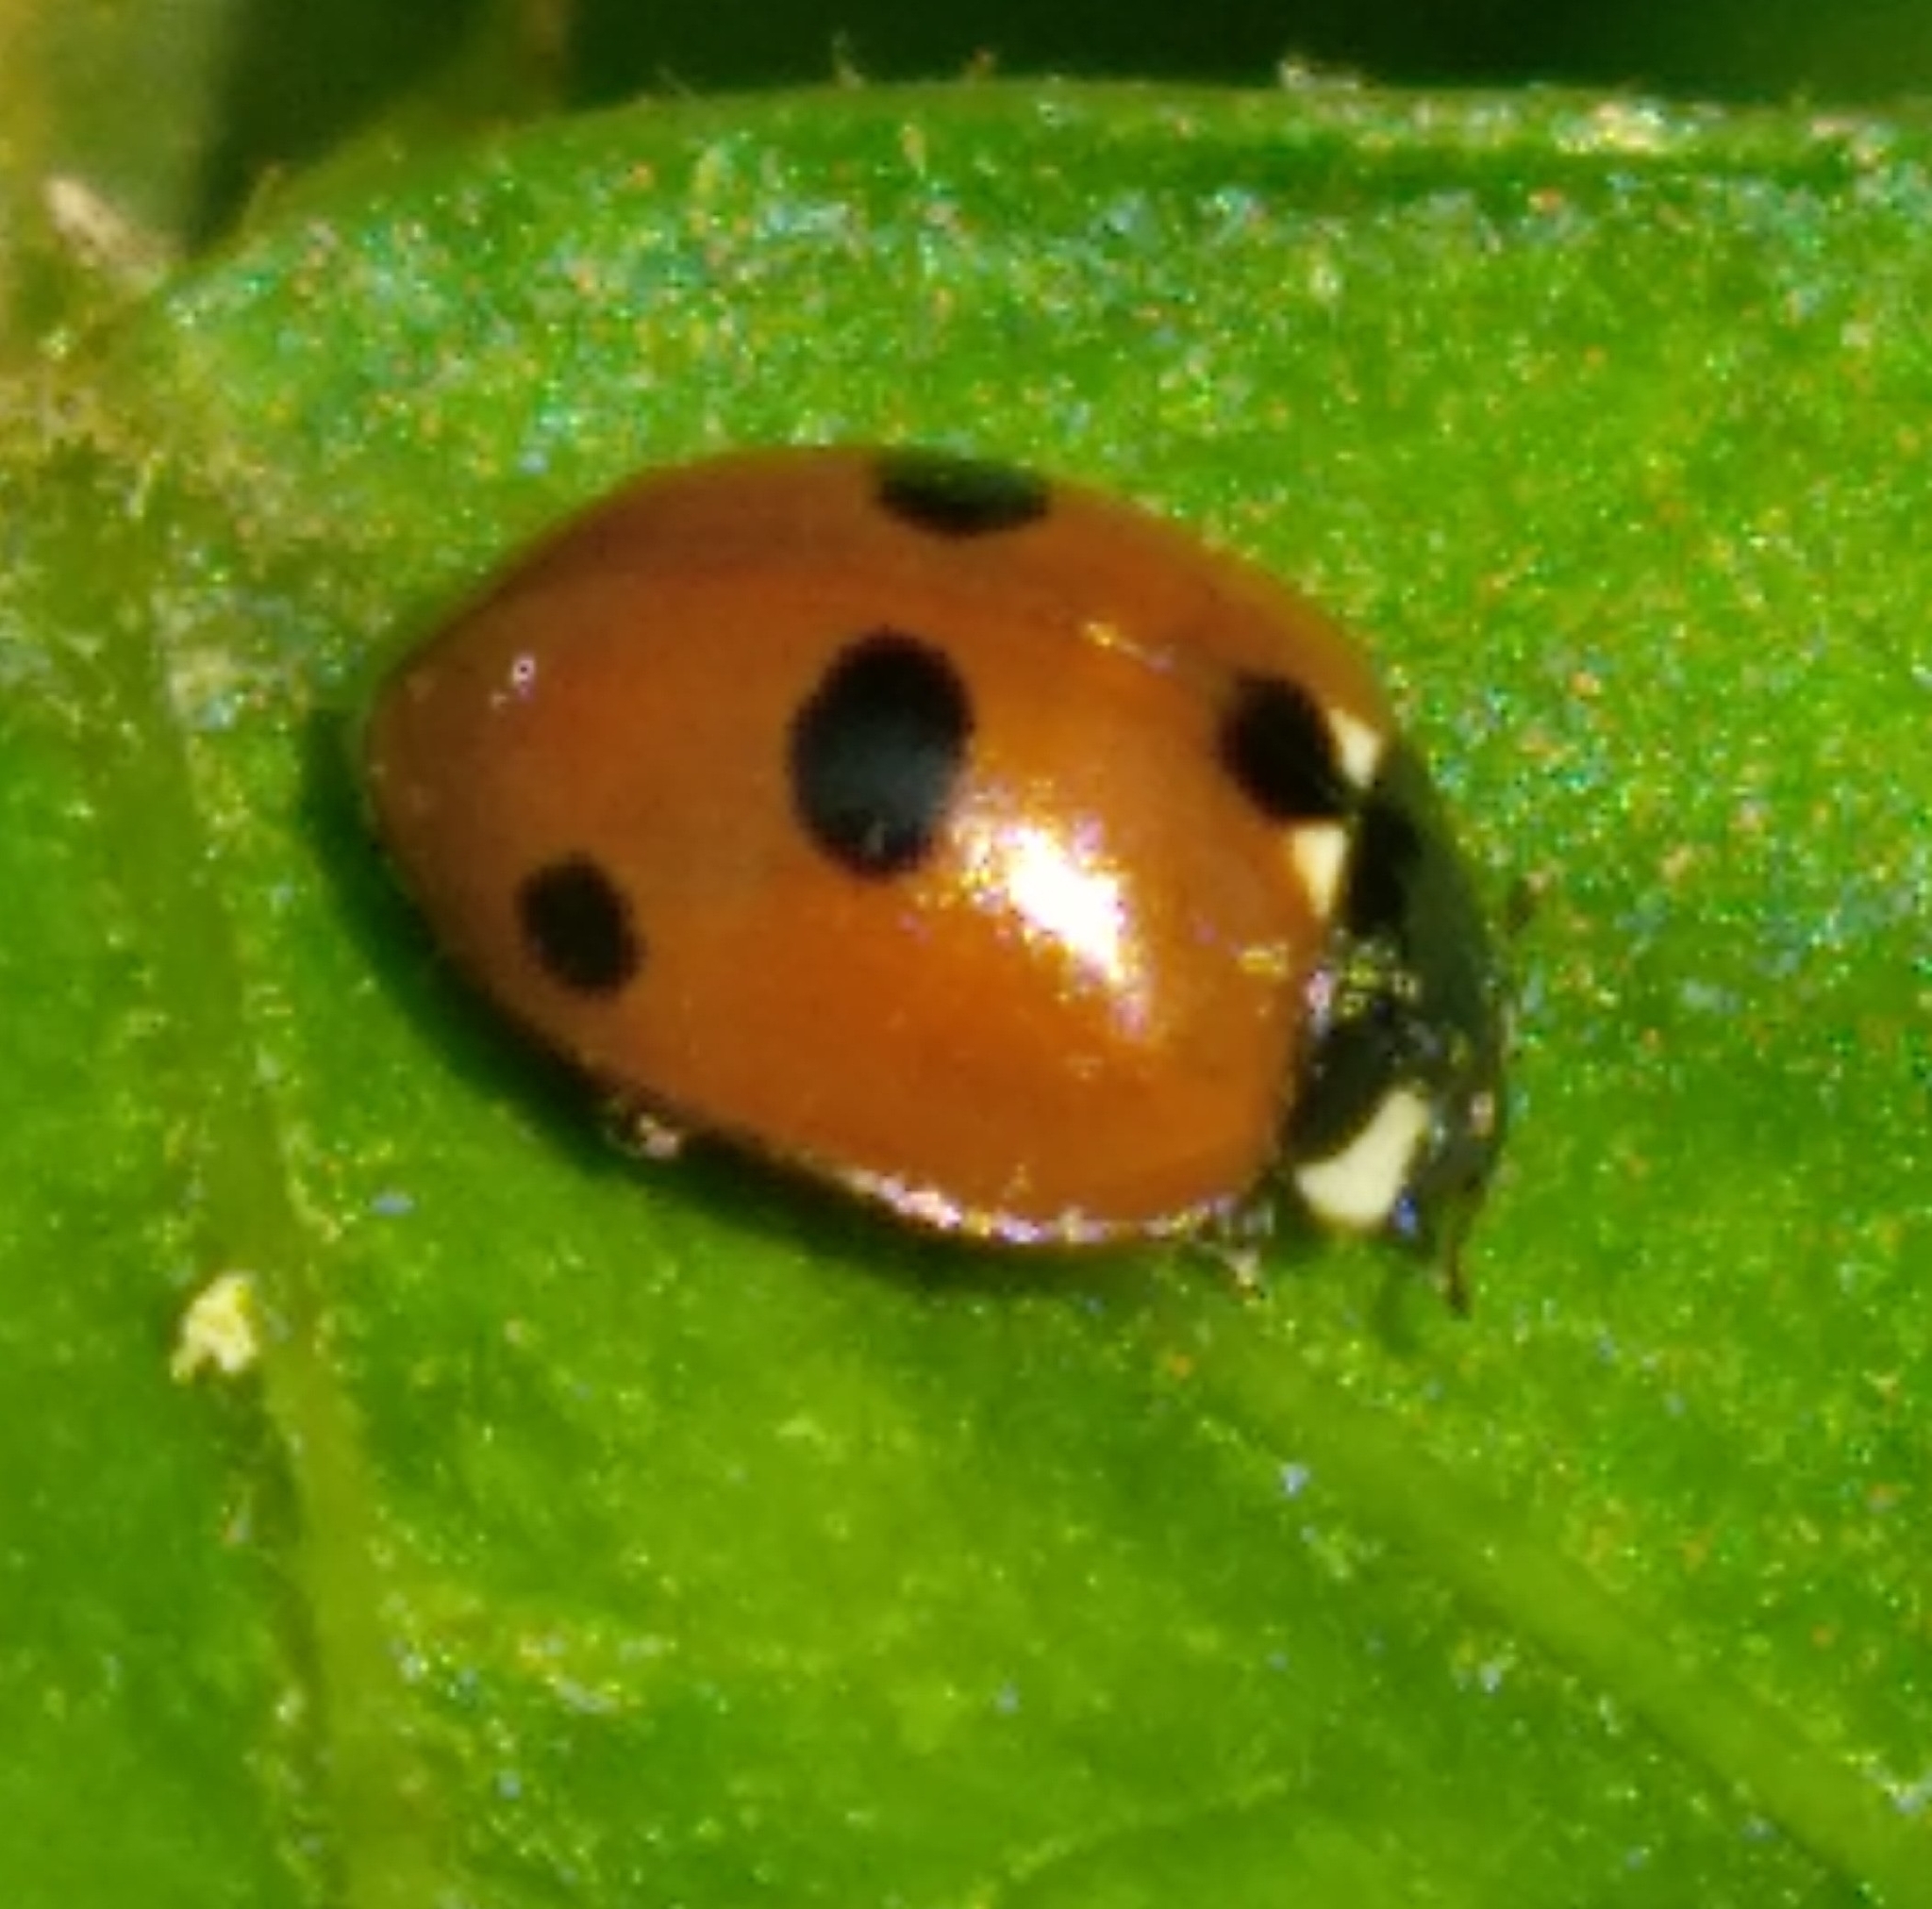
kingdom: Animalia
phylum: Arthropoda
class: Insecta
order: Coleoptera
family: Coccinellidae
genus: Coccinella
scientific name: Coccinella quinquepunctata
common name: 5-spot ladybird
